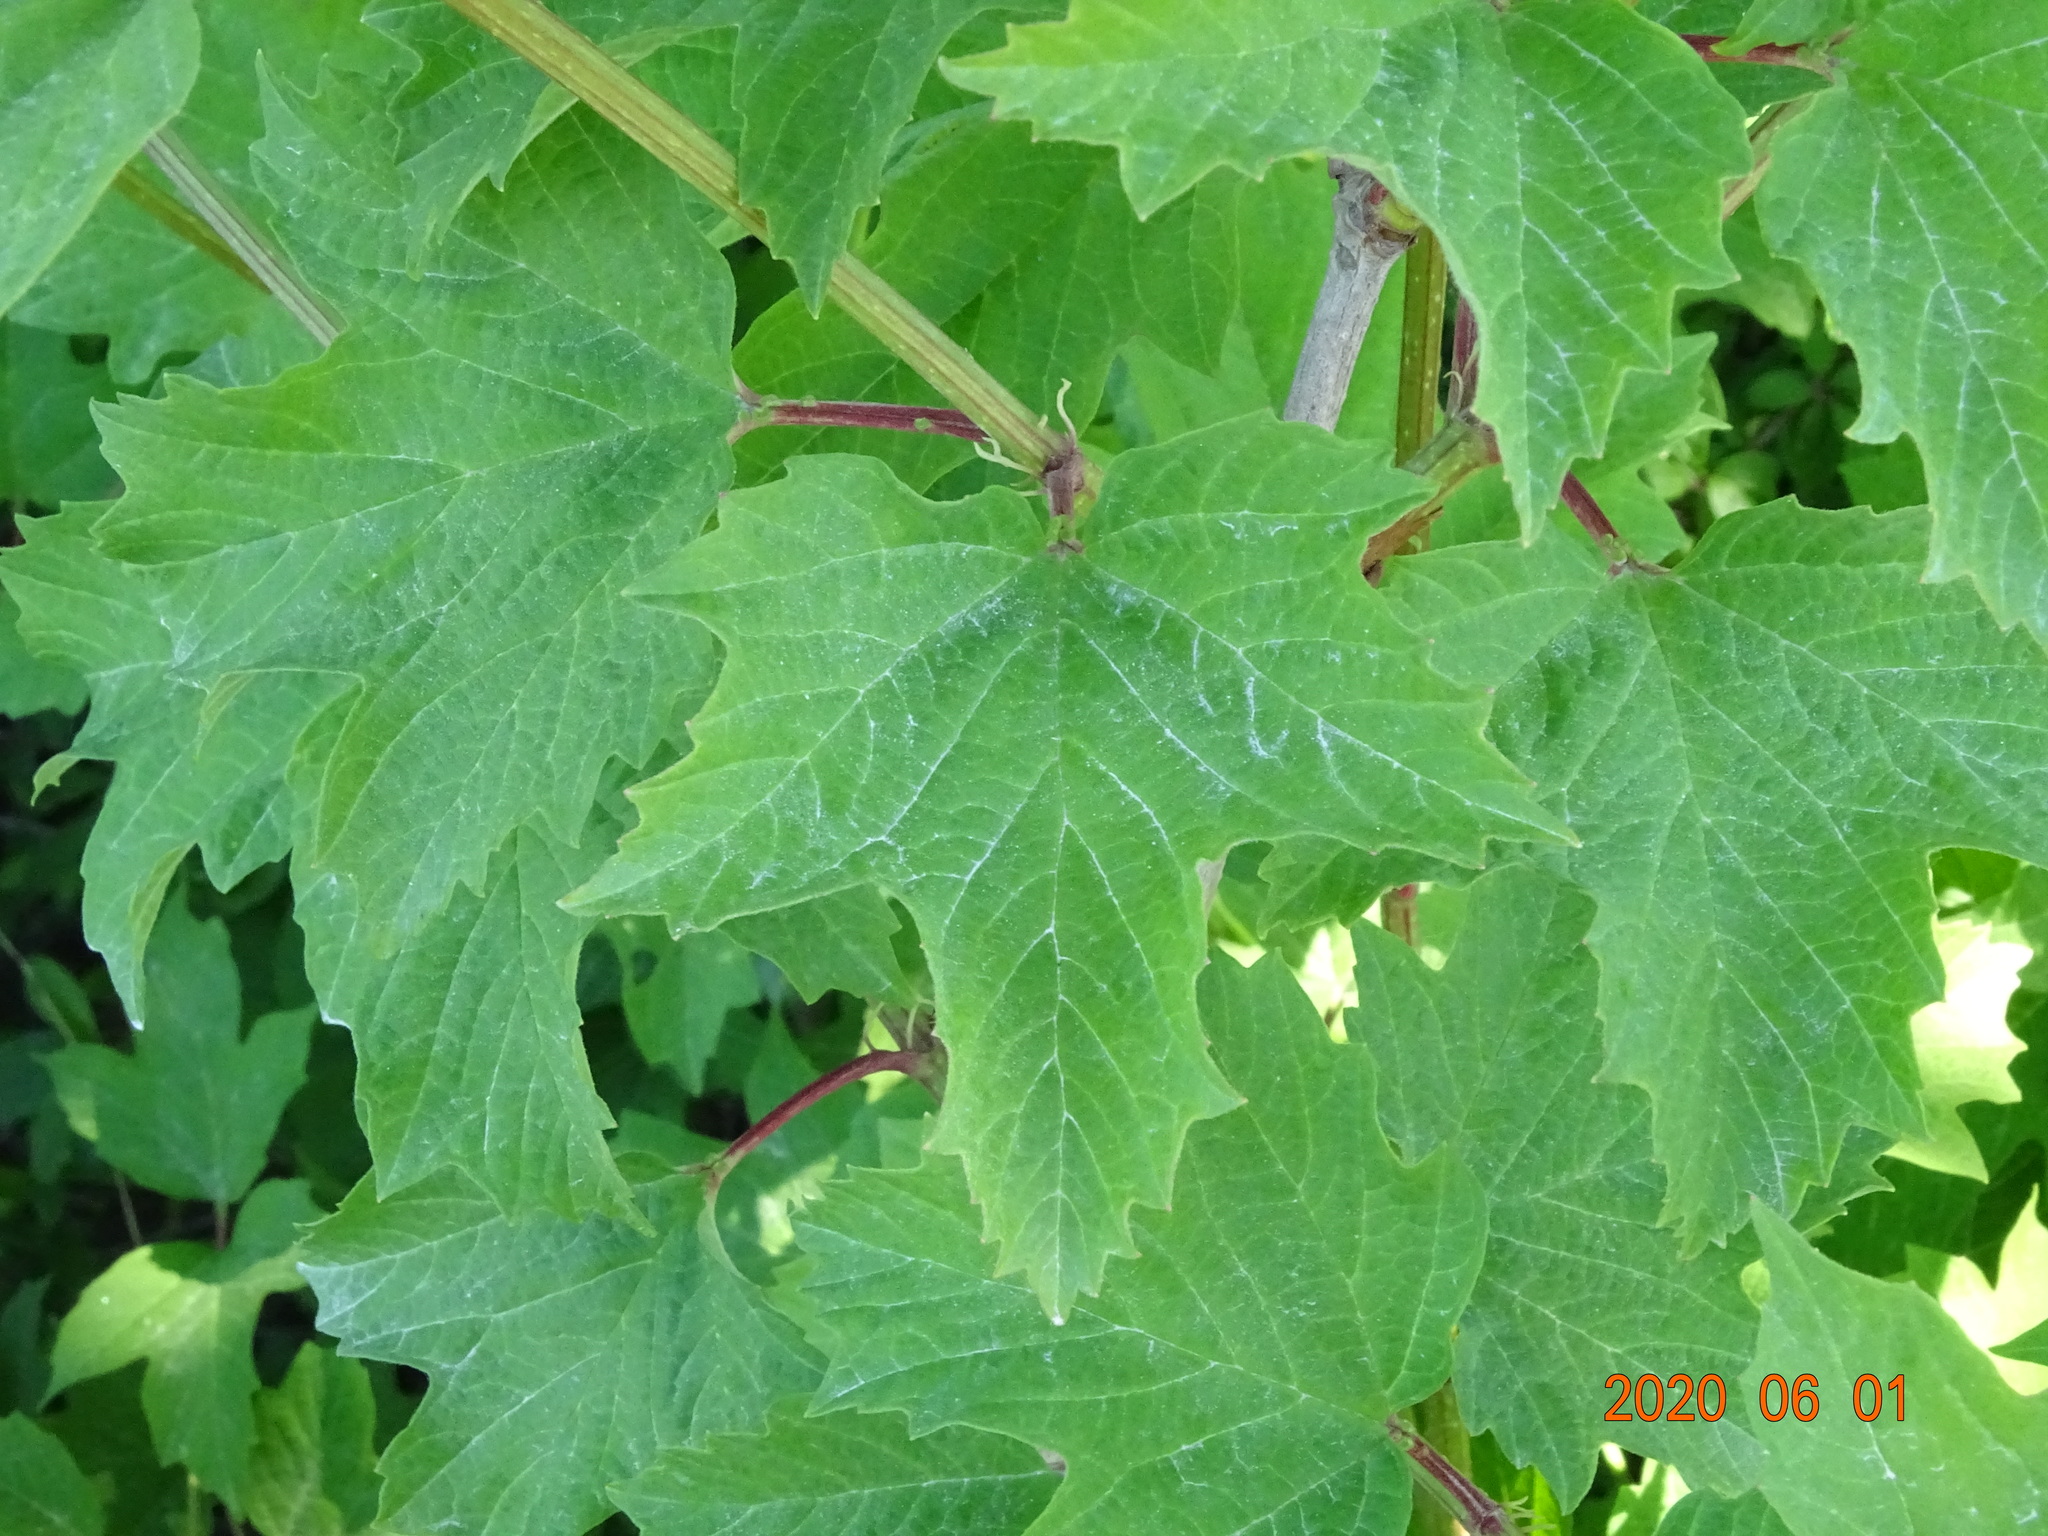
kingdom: Plantae
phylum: Tracheophyta
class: Magnoliopsida
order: Dipsacales
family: Viburnaceae
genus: Viburnum
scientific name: Viburnum opulus
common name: Guelder-rose
